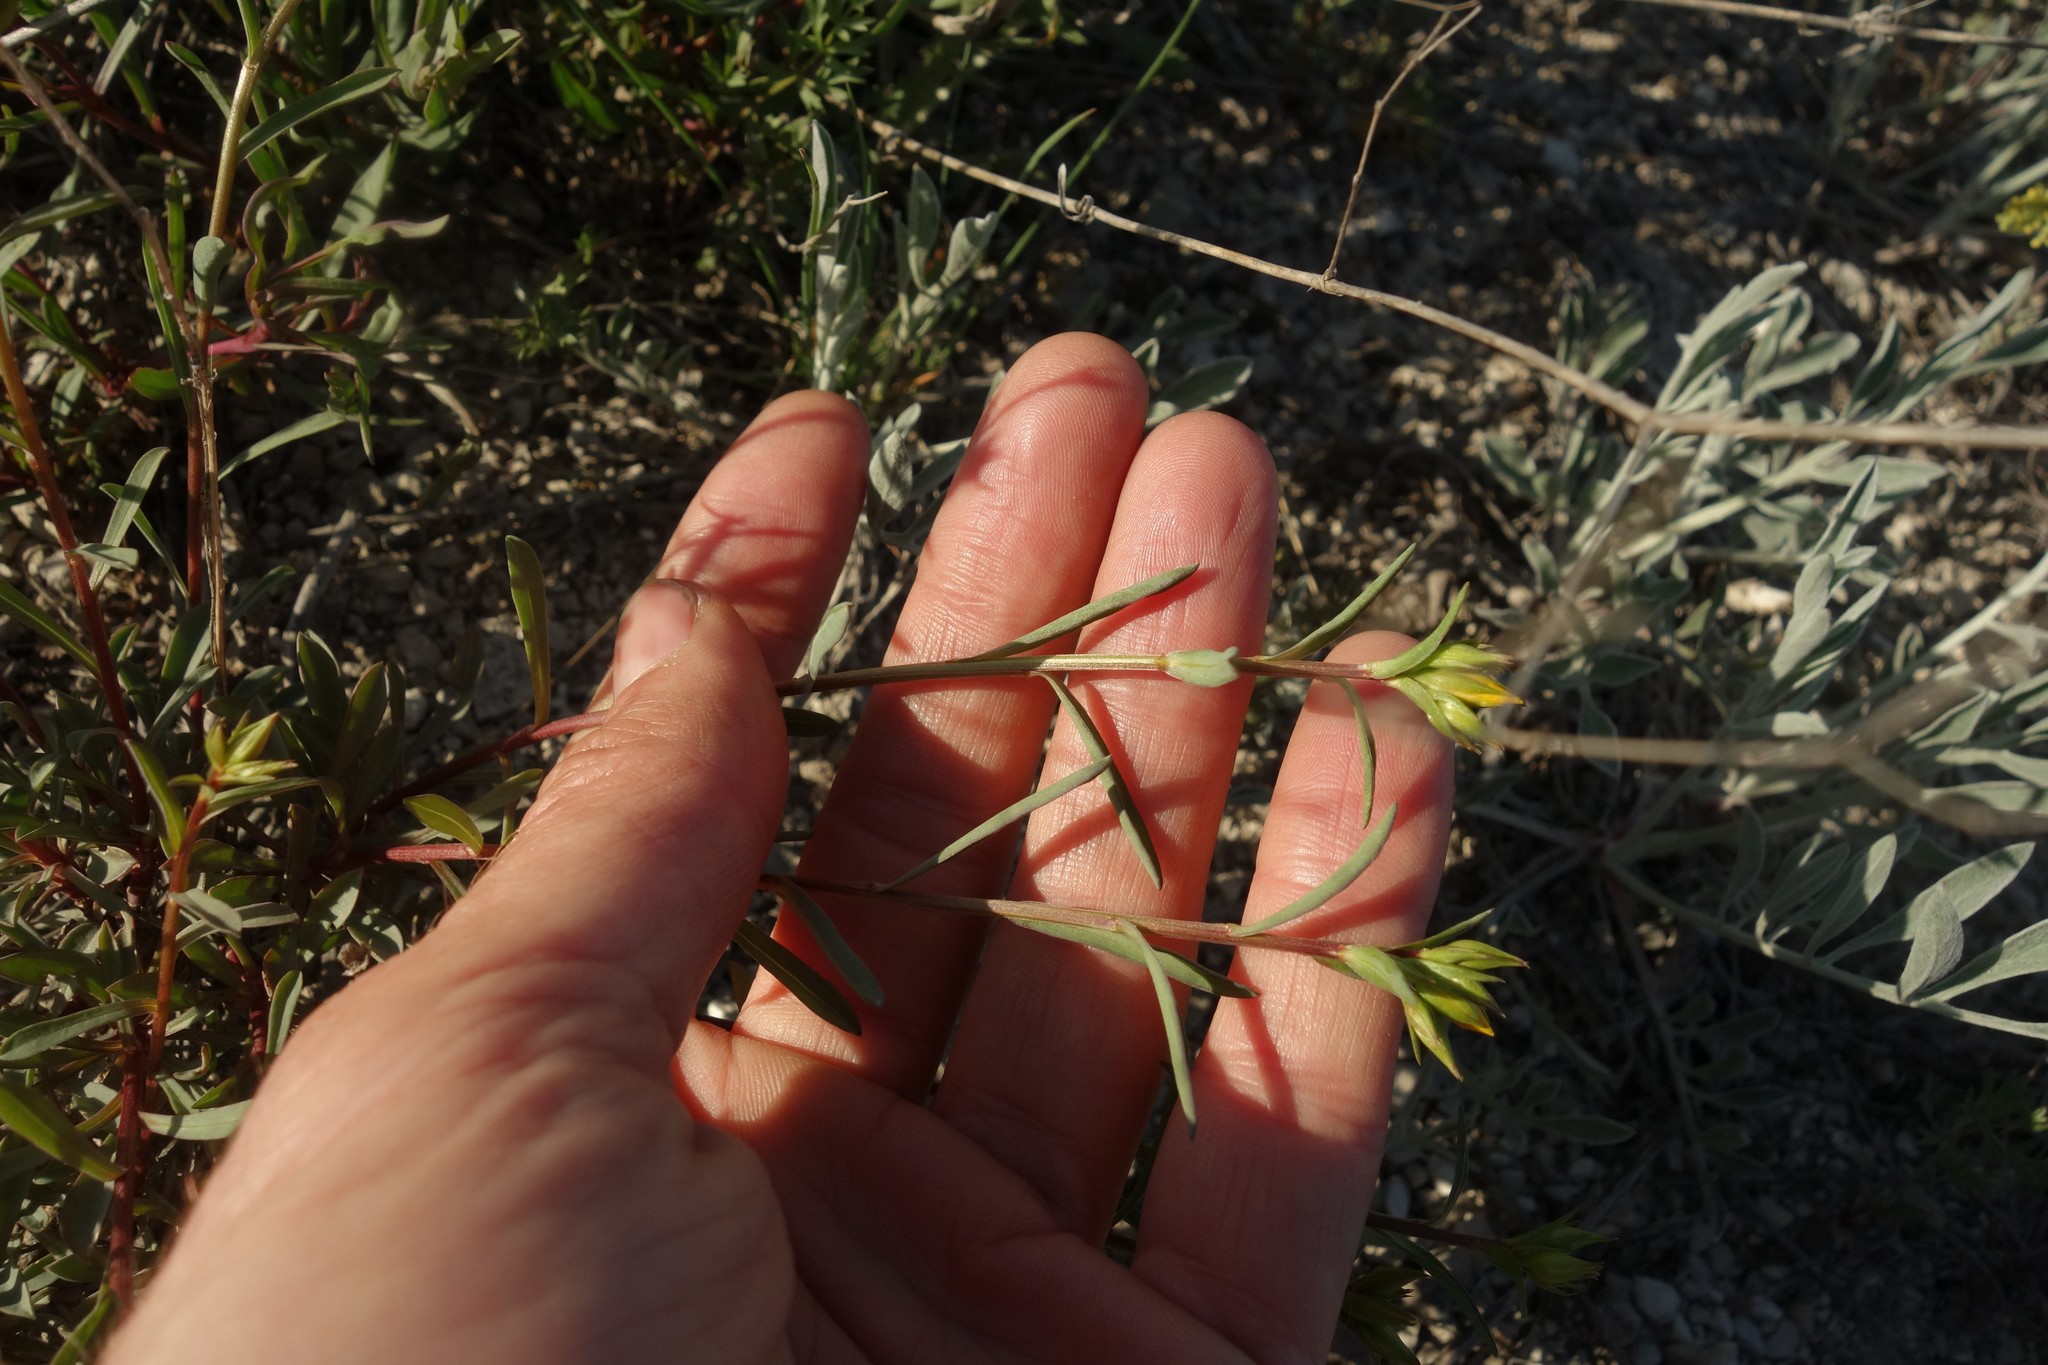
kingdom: Plantae
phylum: Tracheophyta
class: Magnoliopsida
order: Malpighiales
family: Linaceae
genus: Linum
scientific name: Linum ucranicum
